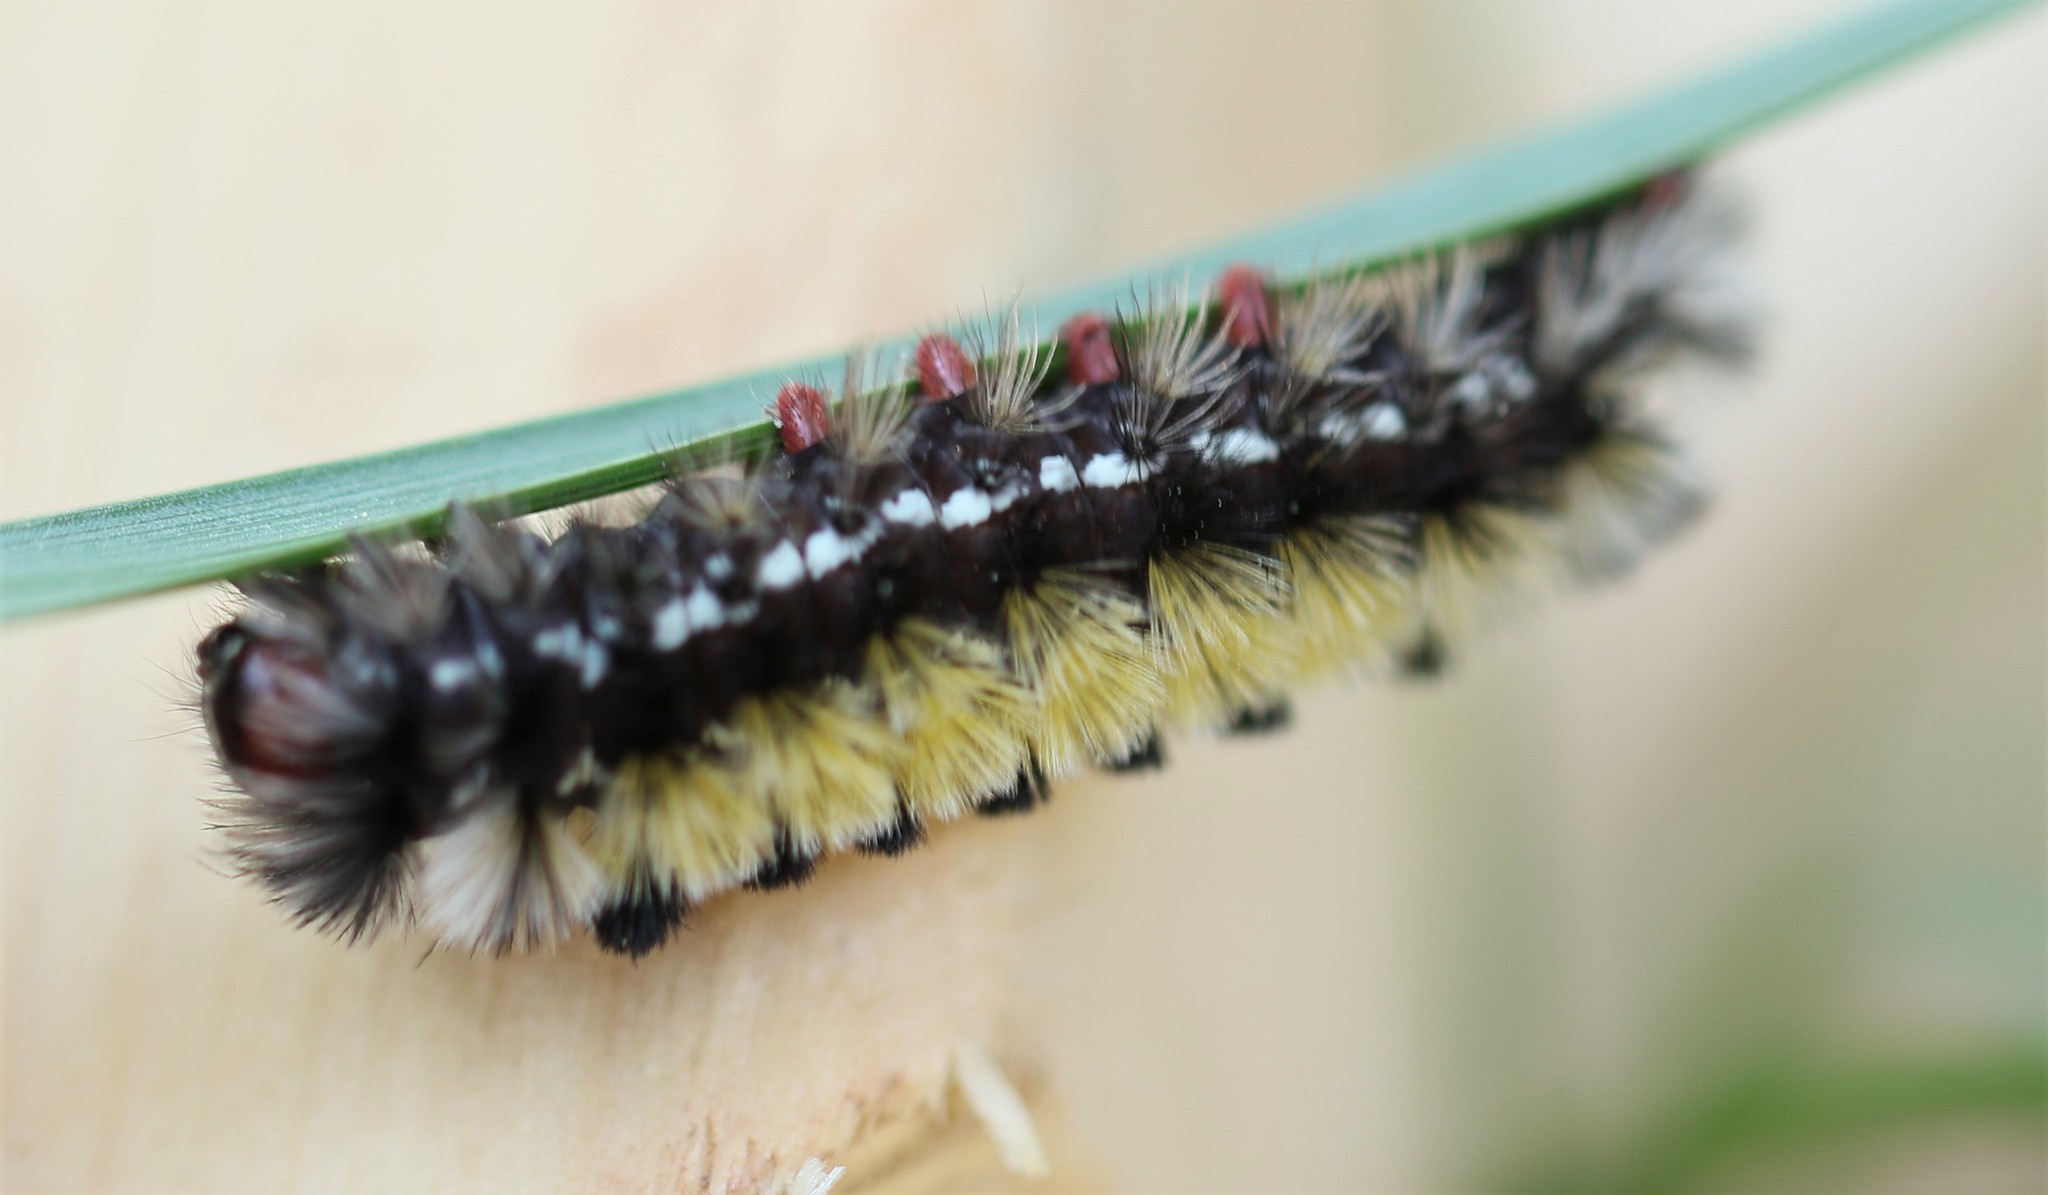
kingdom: Animalia
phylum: Arthropoda
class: Insecta
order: Lepidoptera
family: Erebidae
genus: Ctenucha
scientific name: Ctenucha virginica
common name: Virginia ctenucha moth
